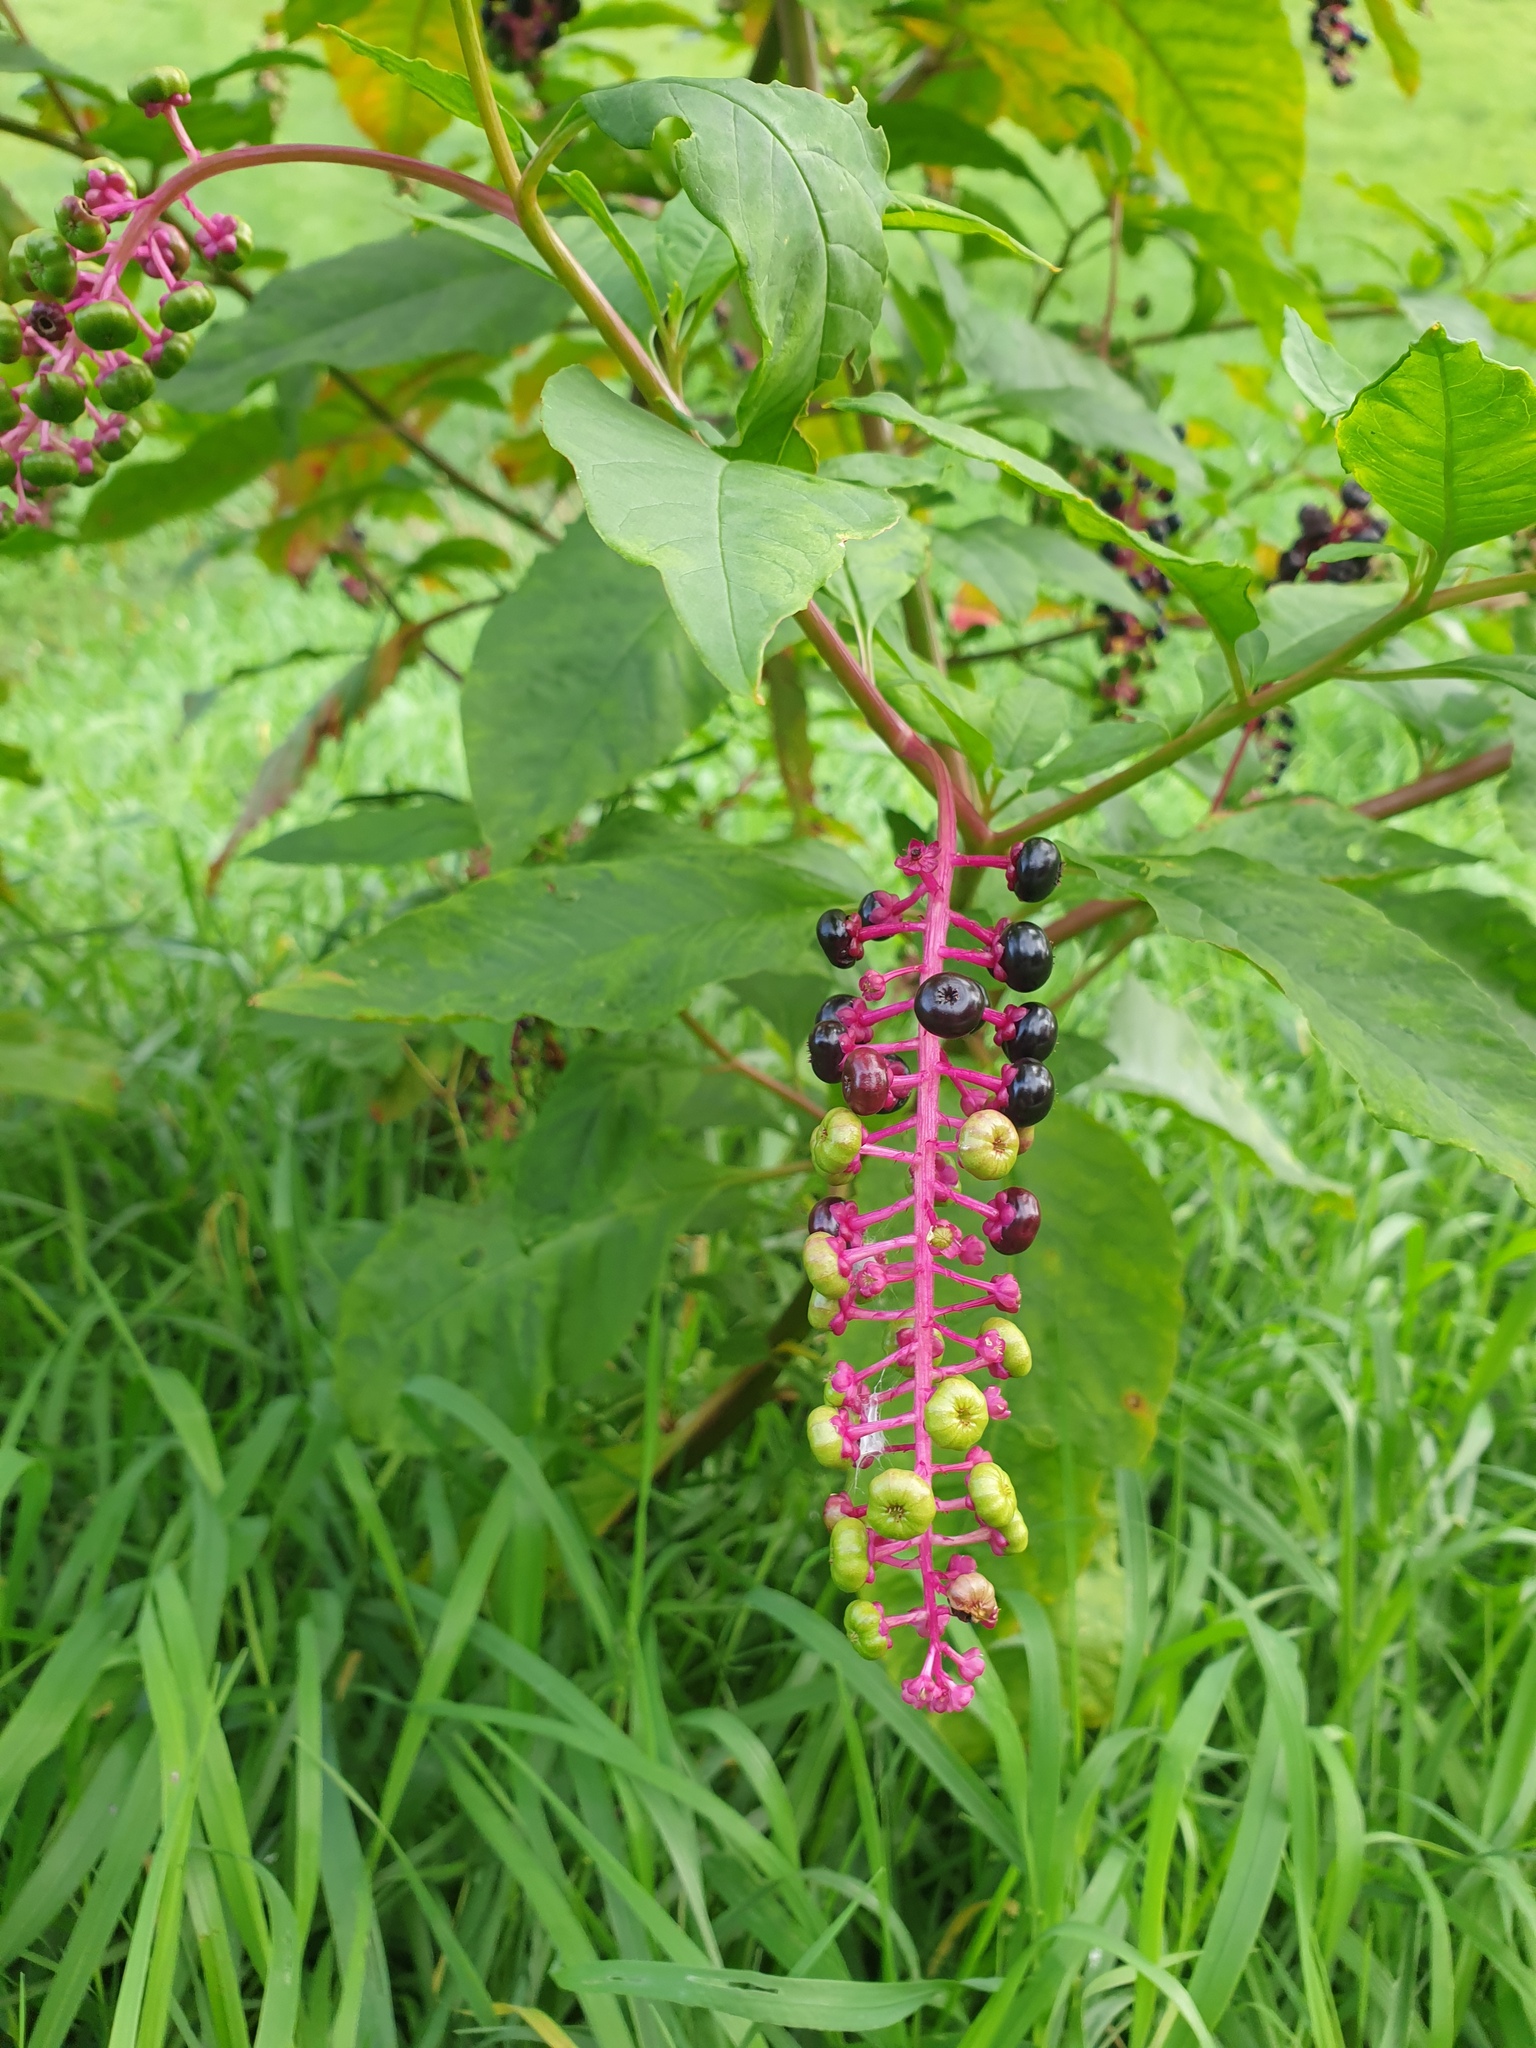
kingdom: Plantae
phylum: Tracheophyta
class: Magnoliopsida
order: Caryophyllales
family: Phytolaccaceae
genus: Phytolacca
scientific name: Phytolacca americana
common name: American pokeweed
